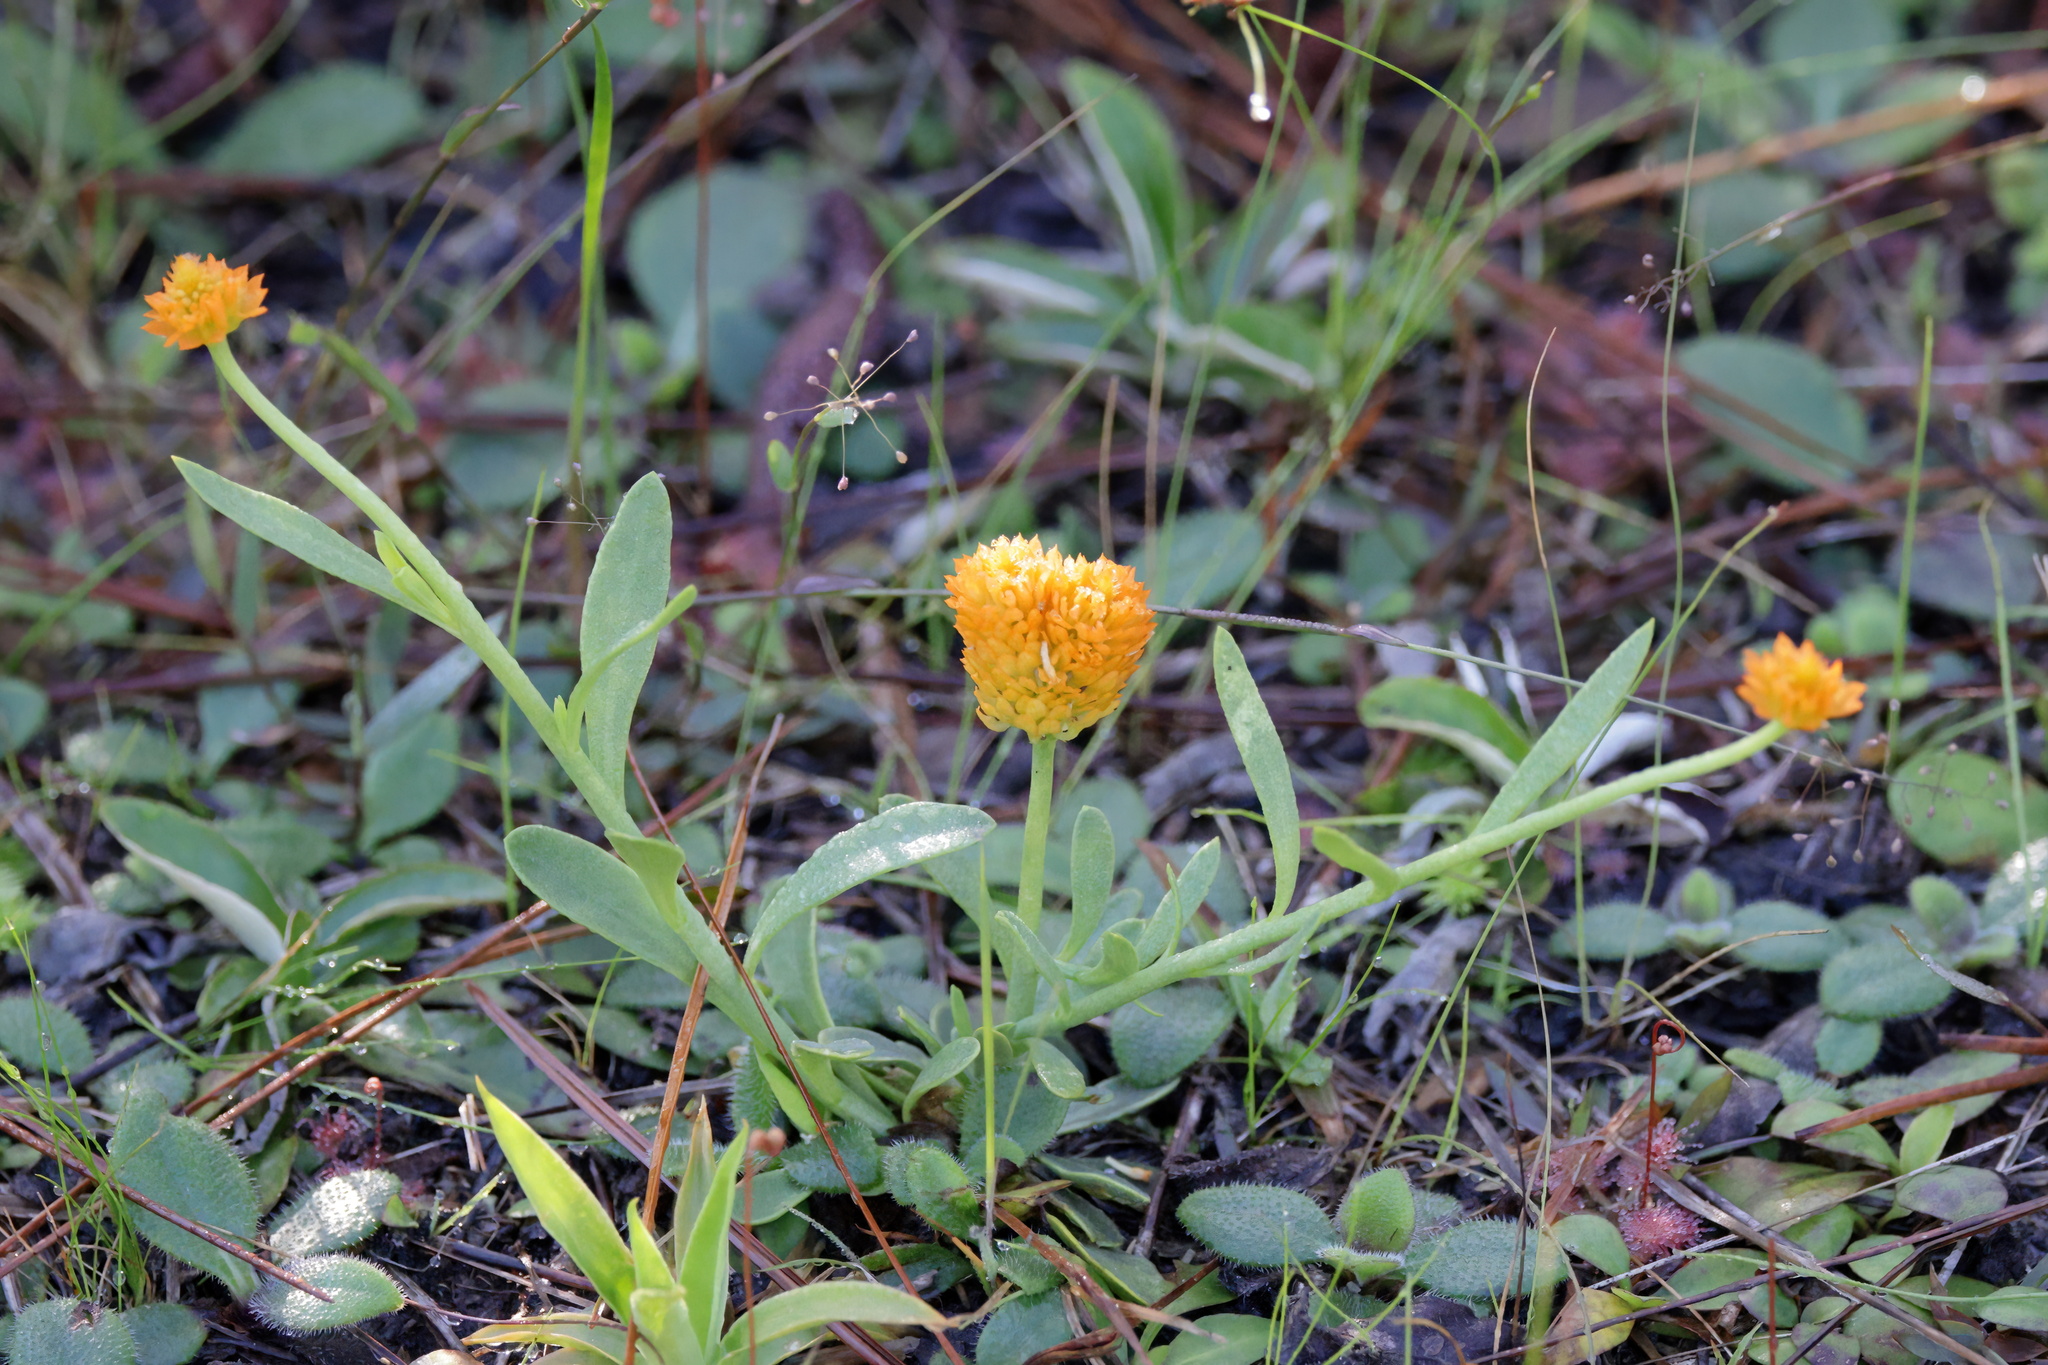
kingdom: Plantae
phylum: Tracheophyta
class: Magnoliopsida
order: Fabales
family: Polygalaceae
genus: Polygala
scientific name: Polygala lutea
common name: Orange milkwort
